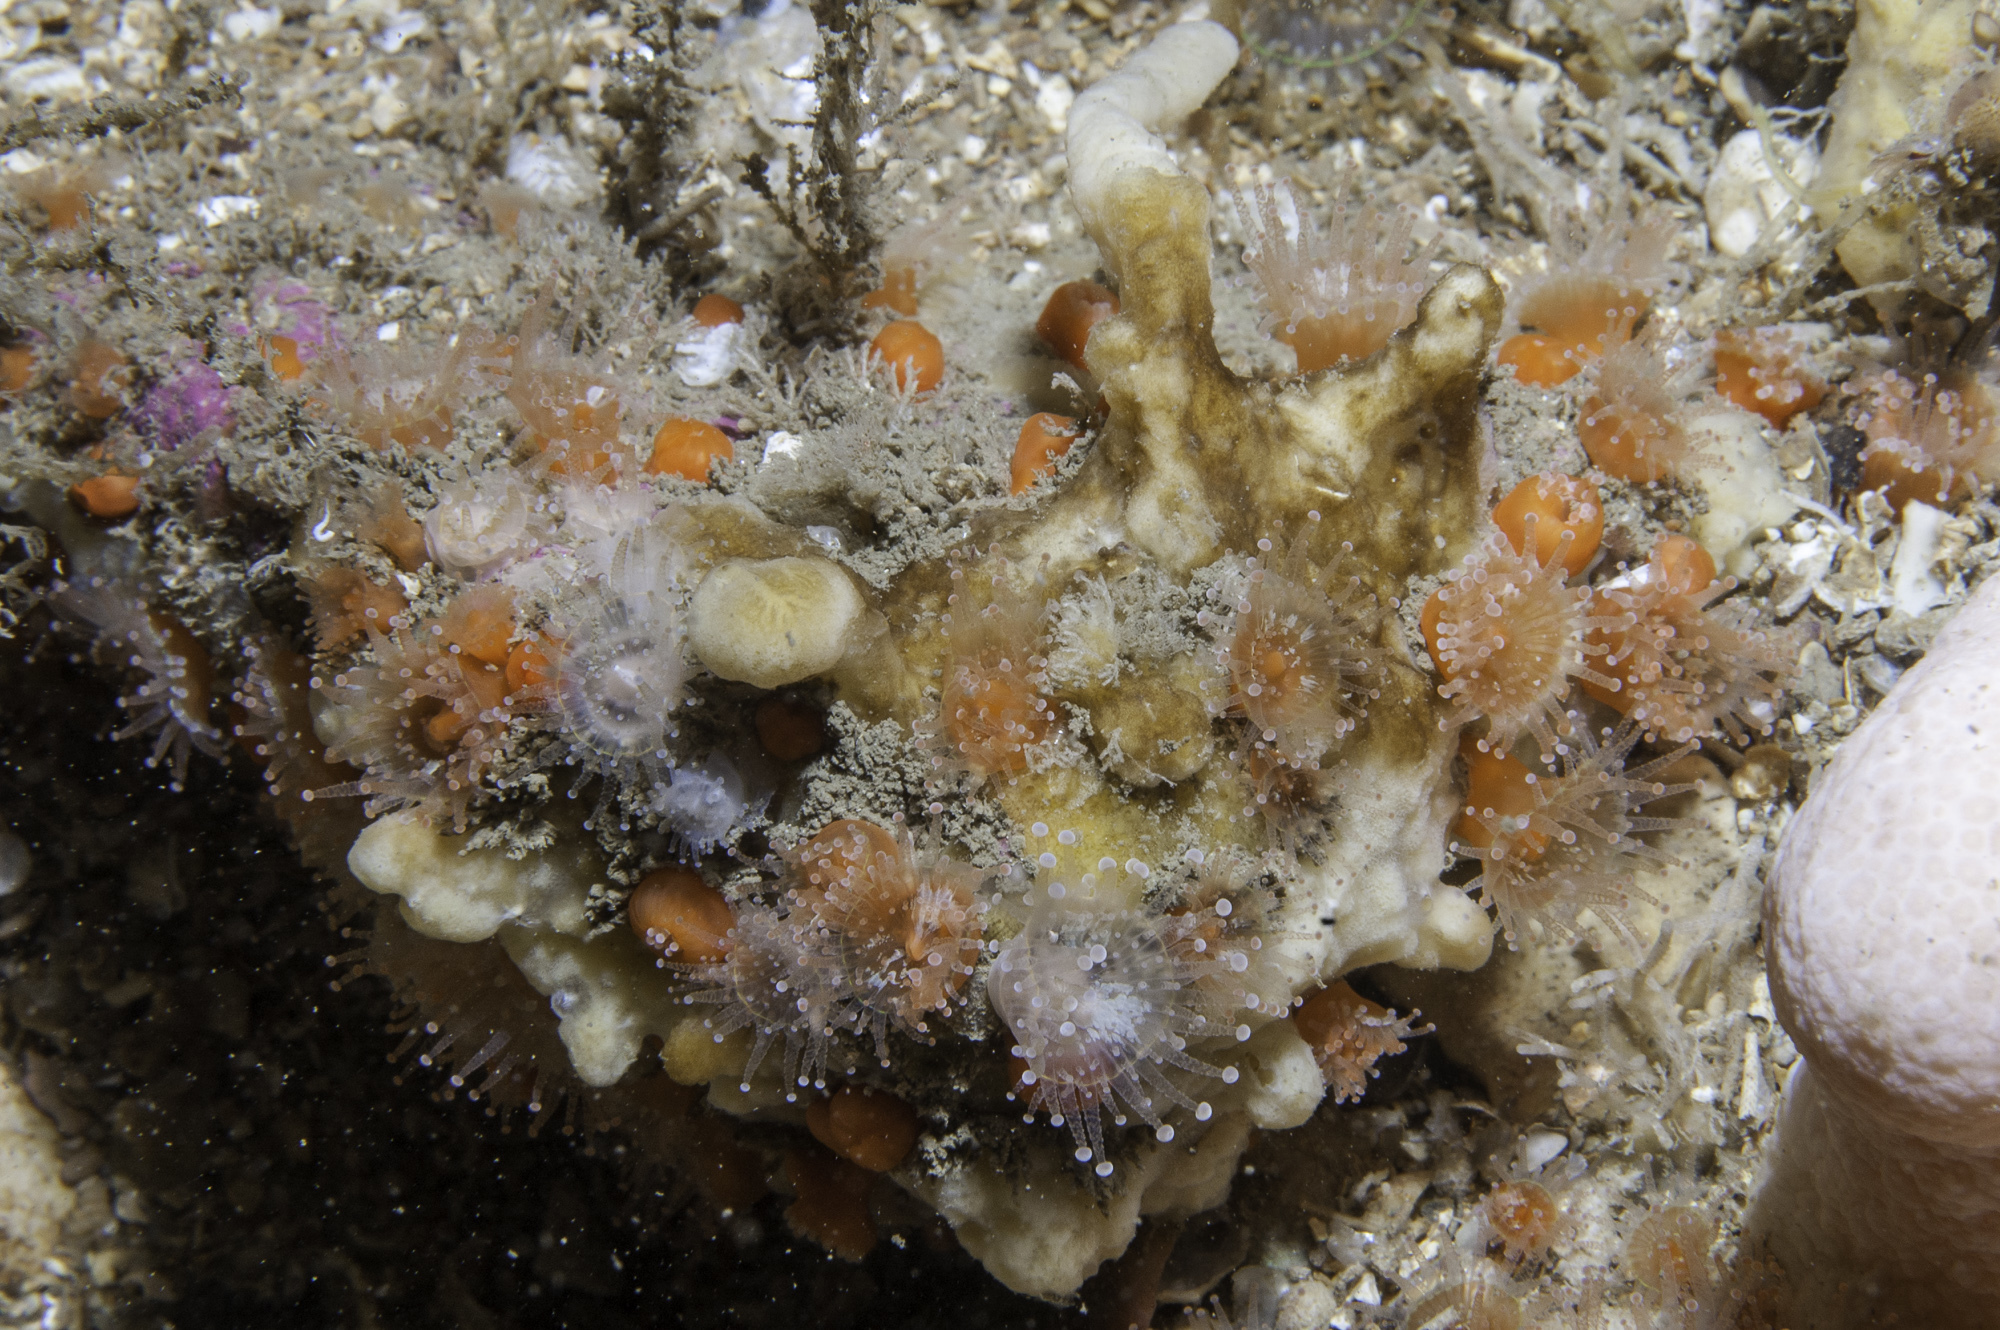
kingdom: Animalia
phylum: Porifera
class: Demospongiae
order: Poecilosclerida
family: Acarnidae
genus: Iophon
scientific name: Iophon nigricans
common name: Yellow-fingered horny sponge
